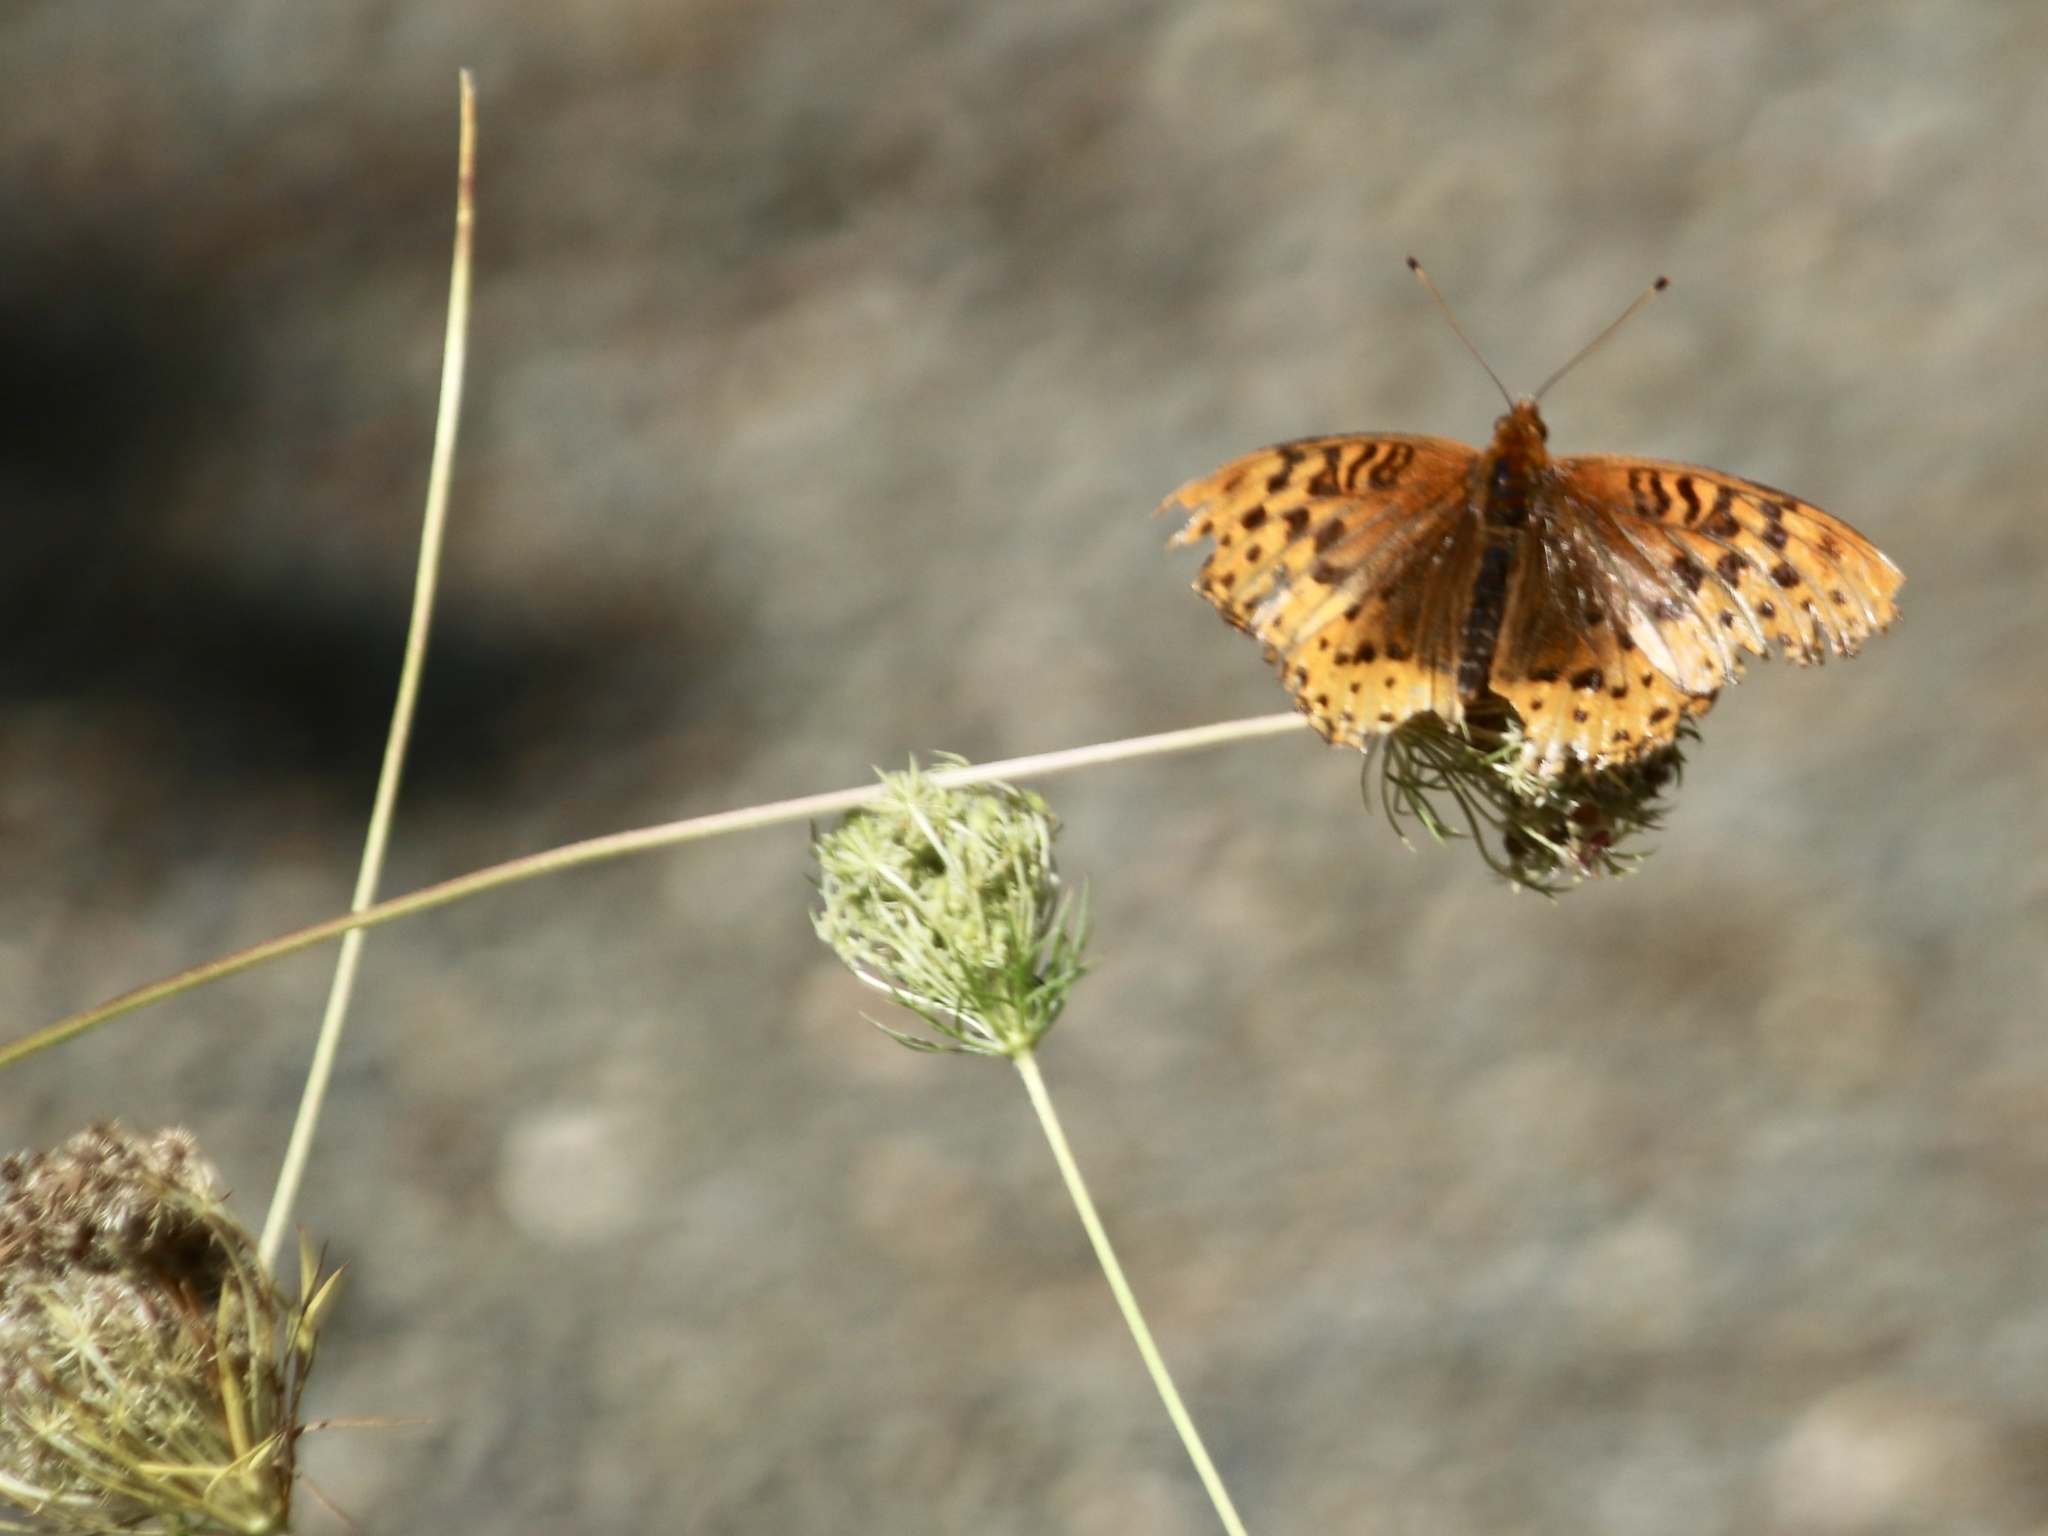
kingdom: Animalia
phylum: Arthropoda
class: Insecta
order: Lepidoptera
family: Nymphalidae
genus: Speyeria
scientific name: Speyeria cybele
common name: Great spangled fritillary
